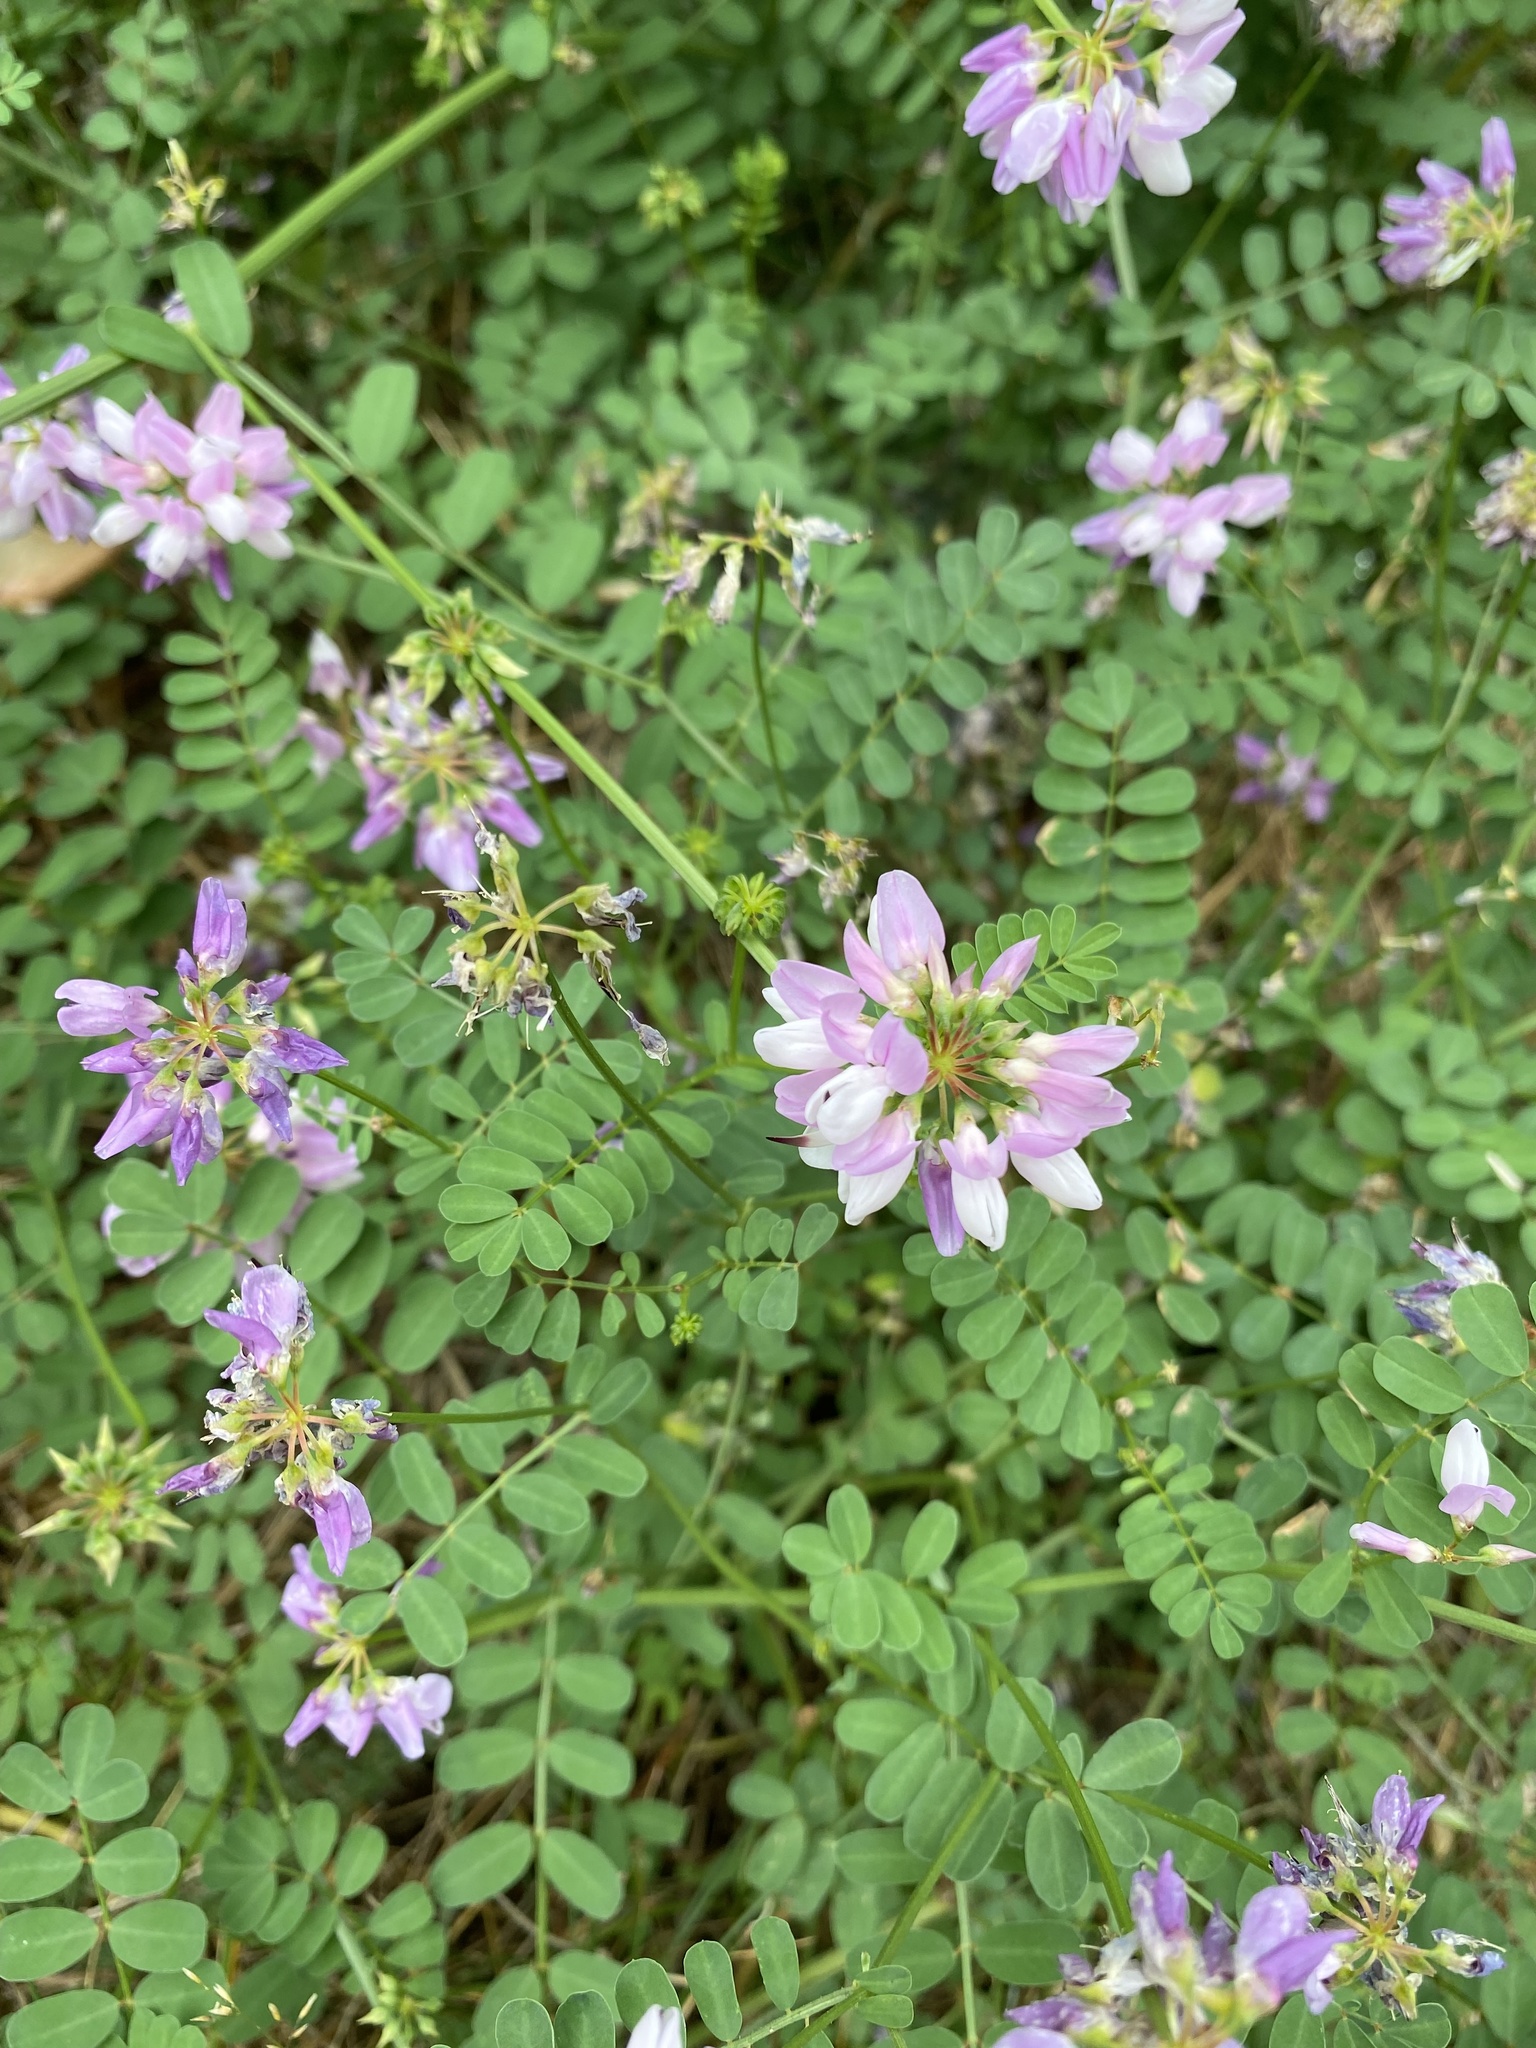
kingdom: Plantae
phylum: Tracheophyta
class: Magnoliopsida
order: Fabales
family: Fabaceae
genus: Coronilla
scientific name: Coronilla varia
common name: Crownvetch
